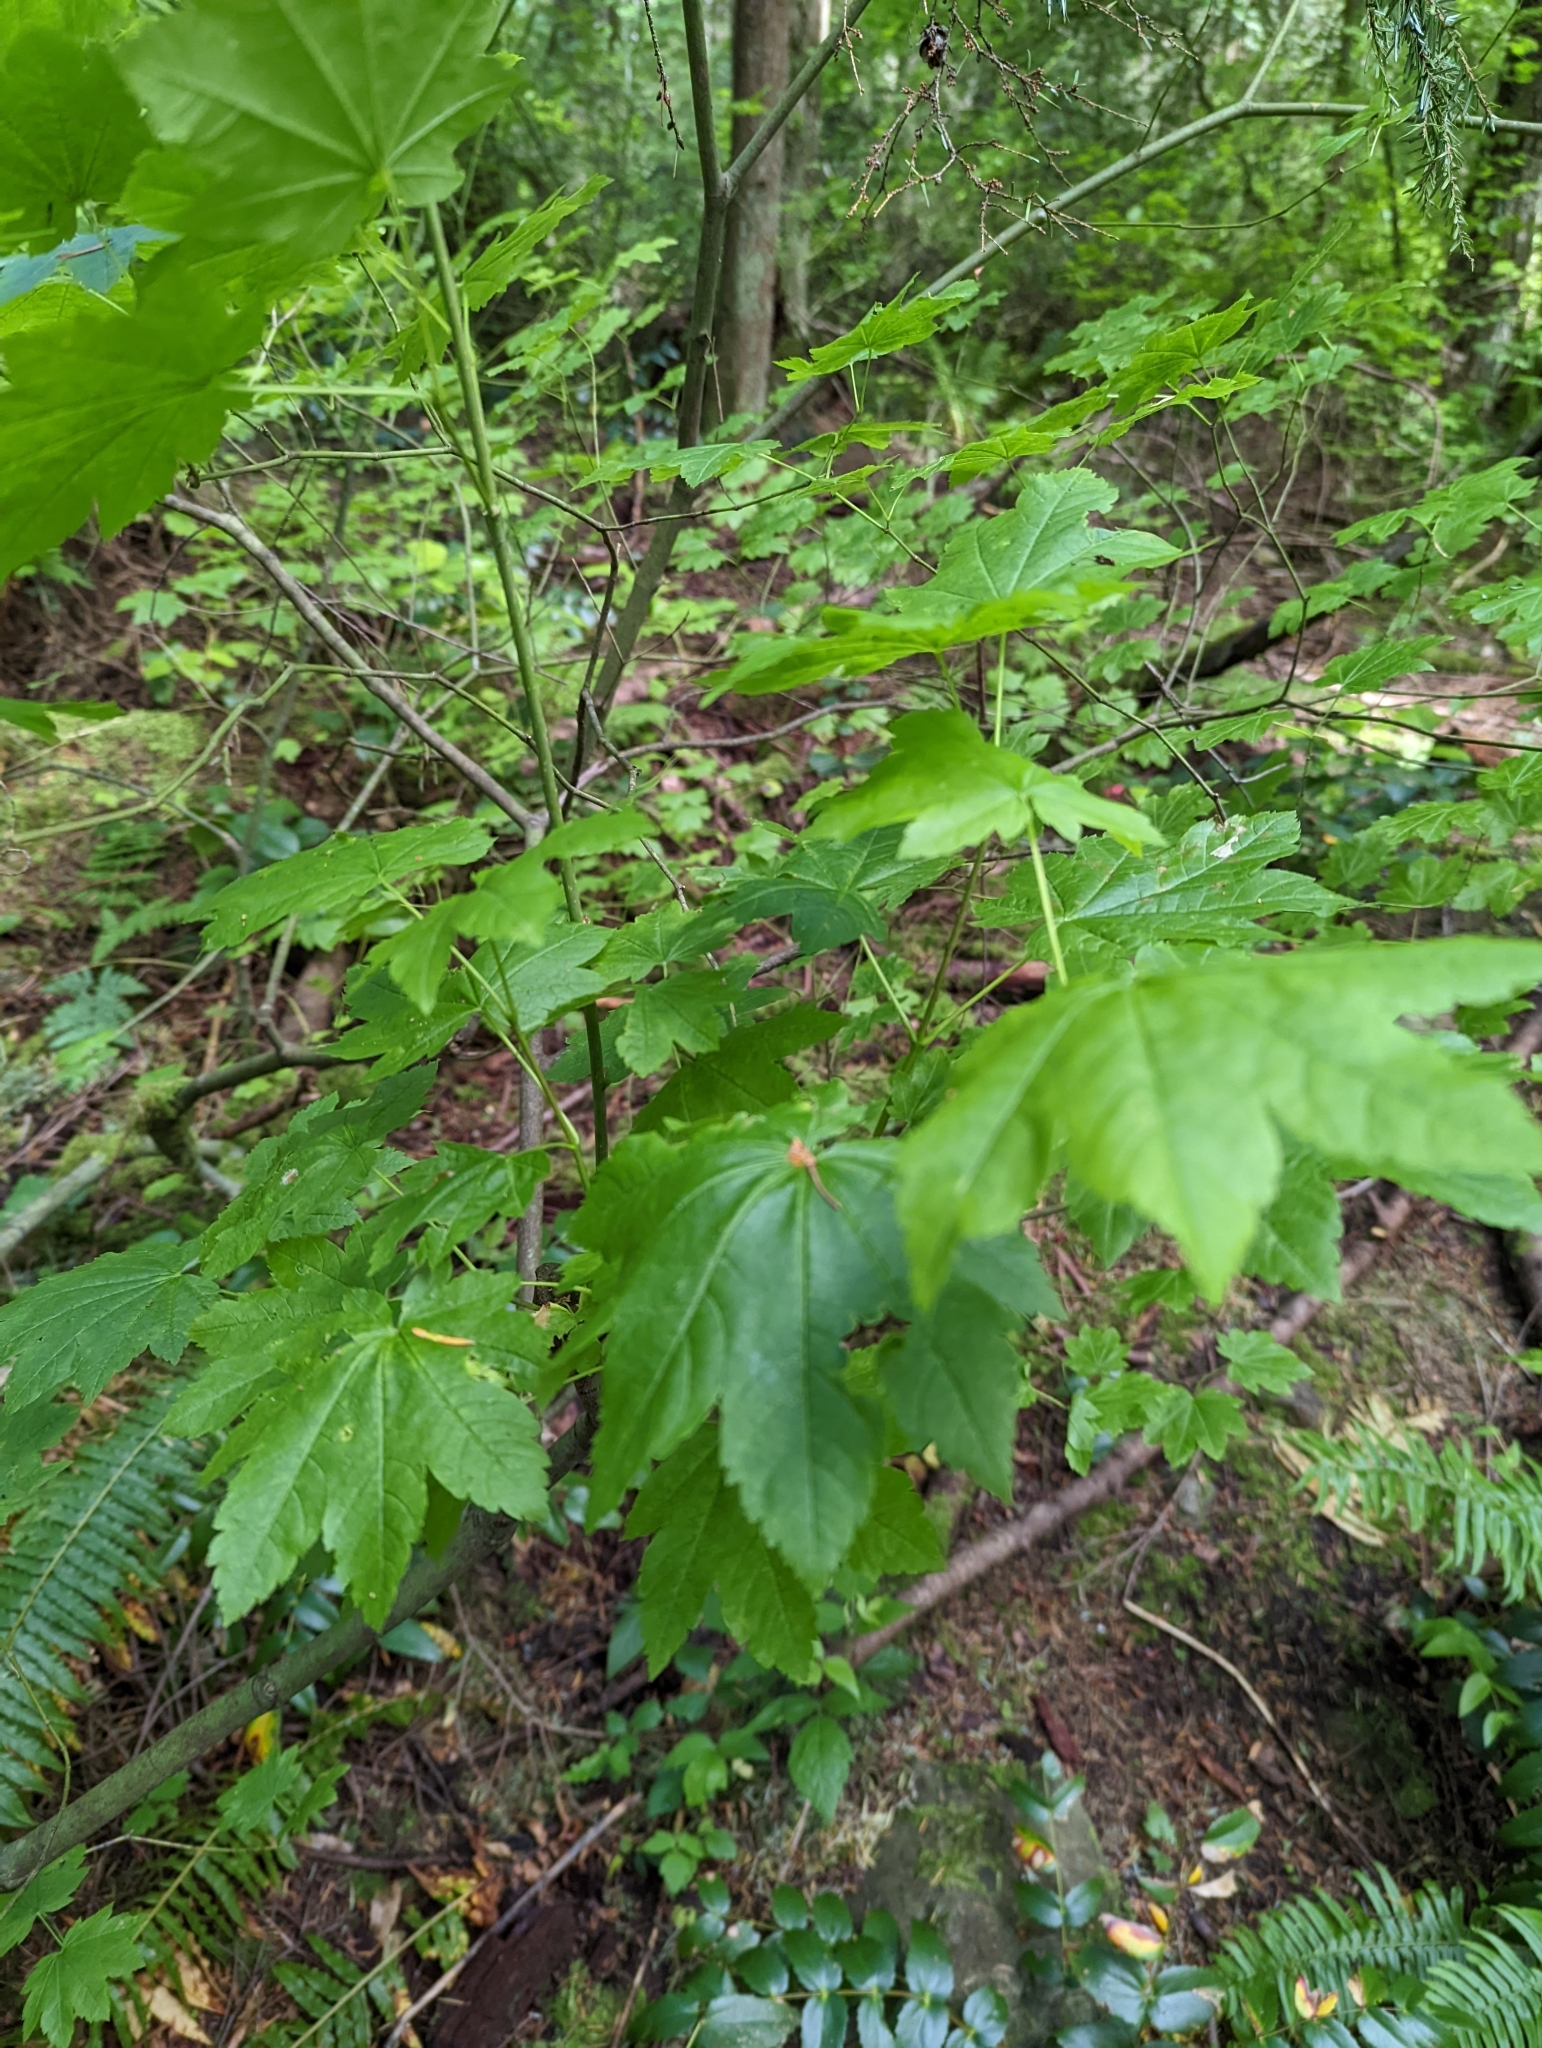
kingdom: Plantae
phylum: Tracheophyta
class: Magnoliopsida
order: Sapindales
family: Sapindaceae
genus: Acer
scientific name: Acer circinatum
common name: Vine maple
